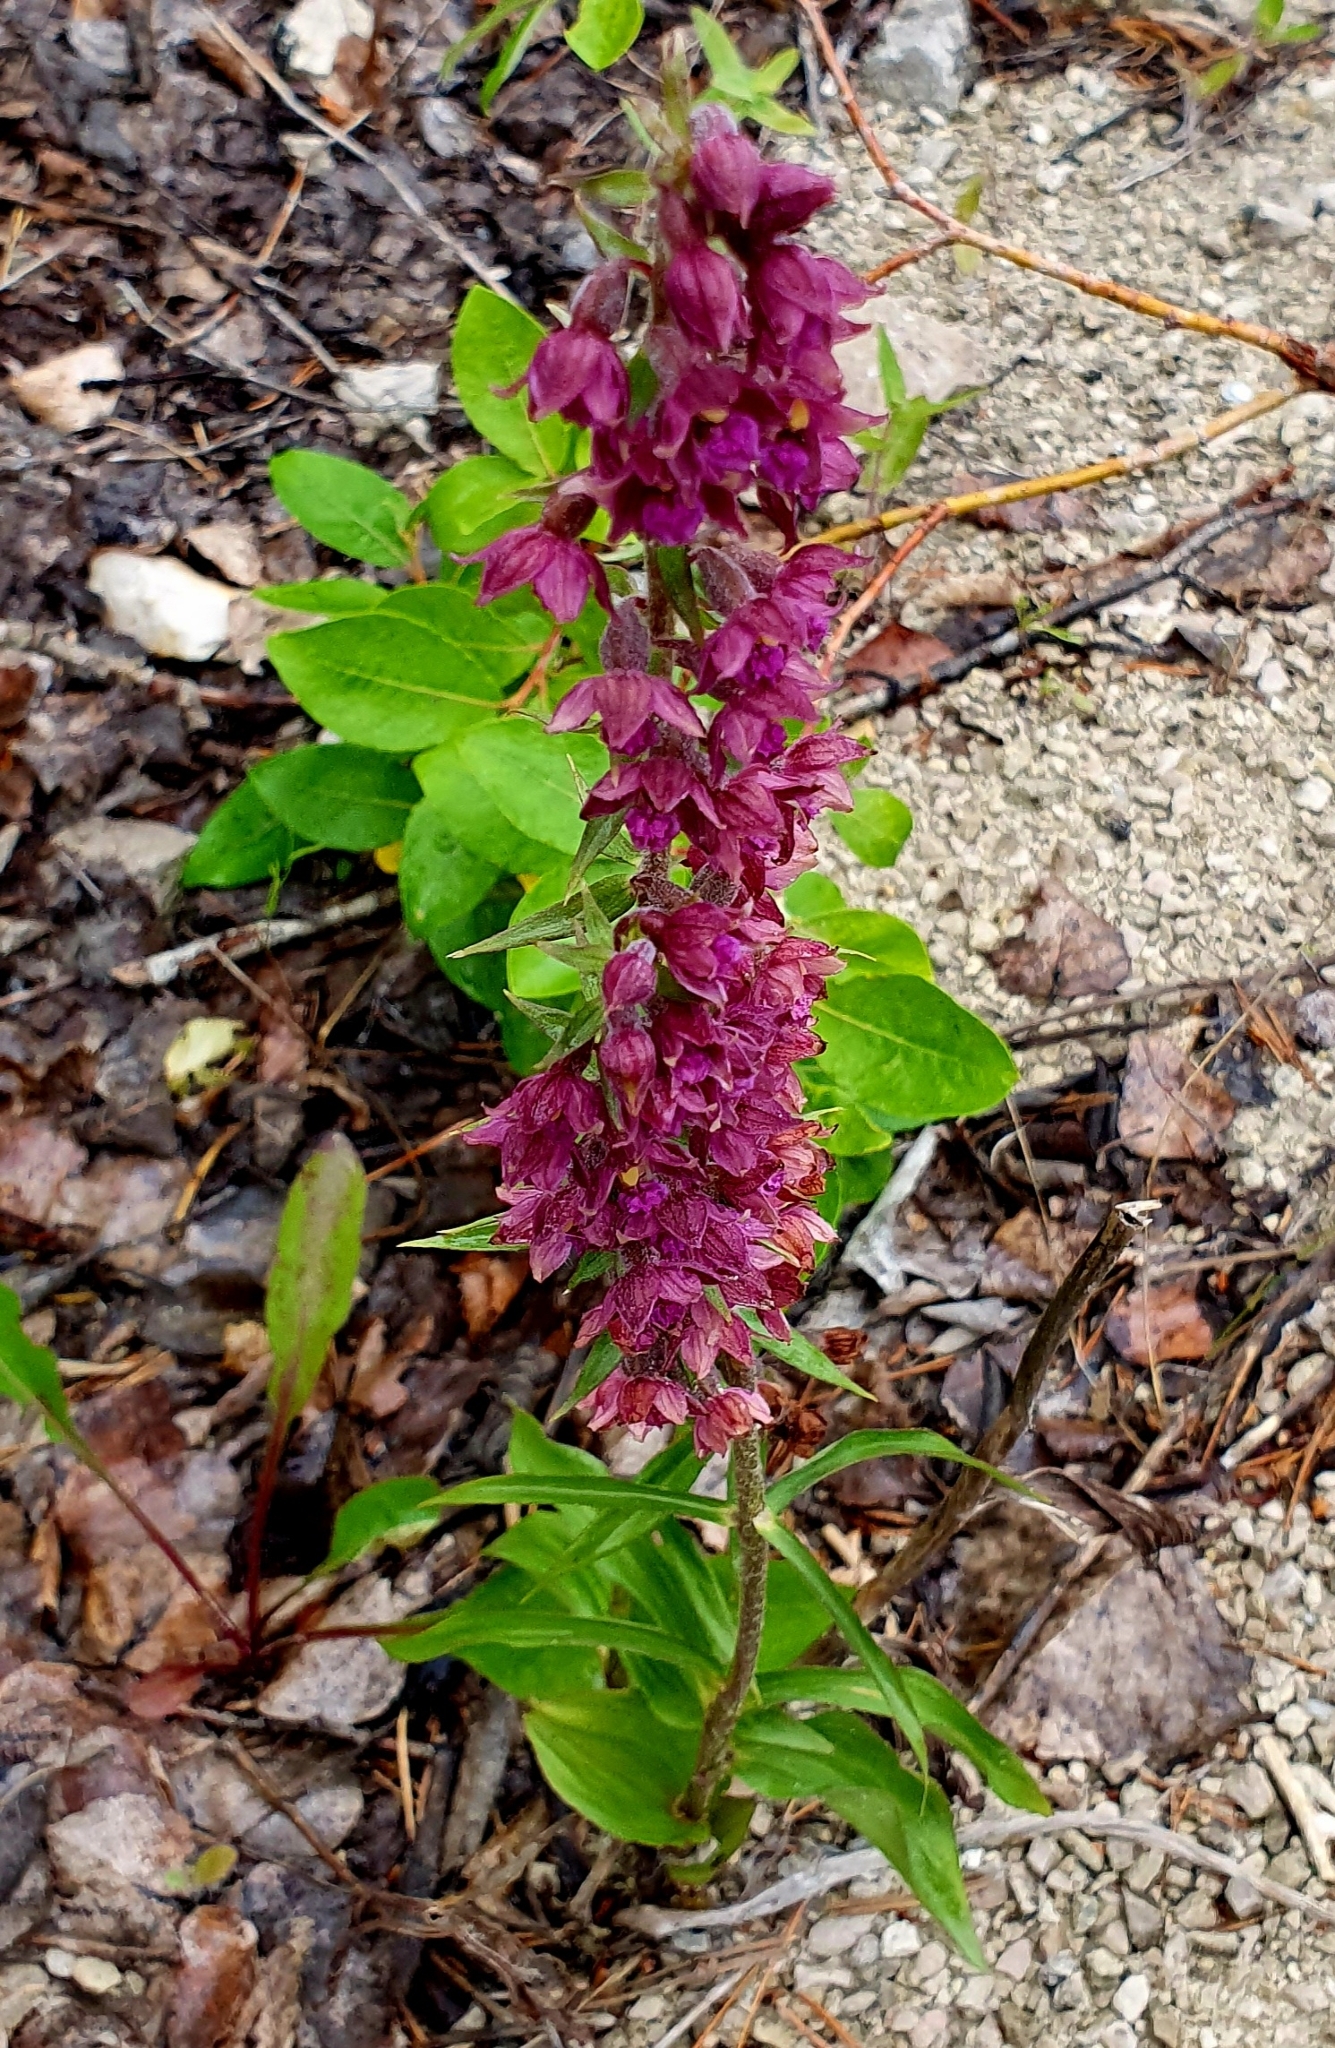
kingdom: Plantae
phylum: Tracheophyta
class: Liliopsida
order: Asparagales
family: Orchidaceae
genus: Epipactis
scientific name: Epipactis atrorubens
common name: Dark-red helleborine
